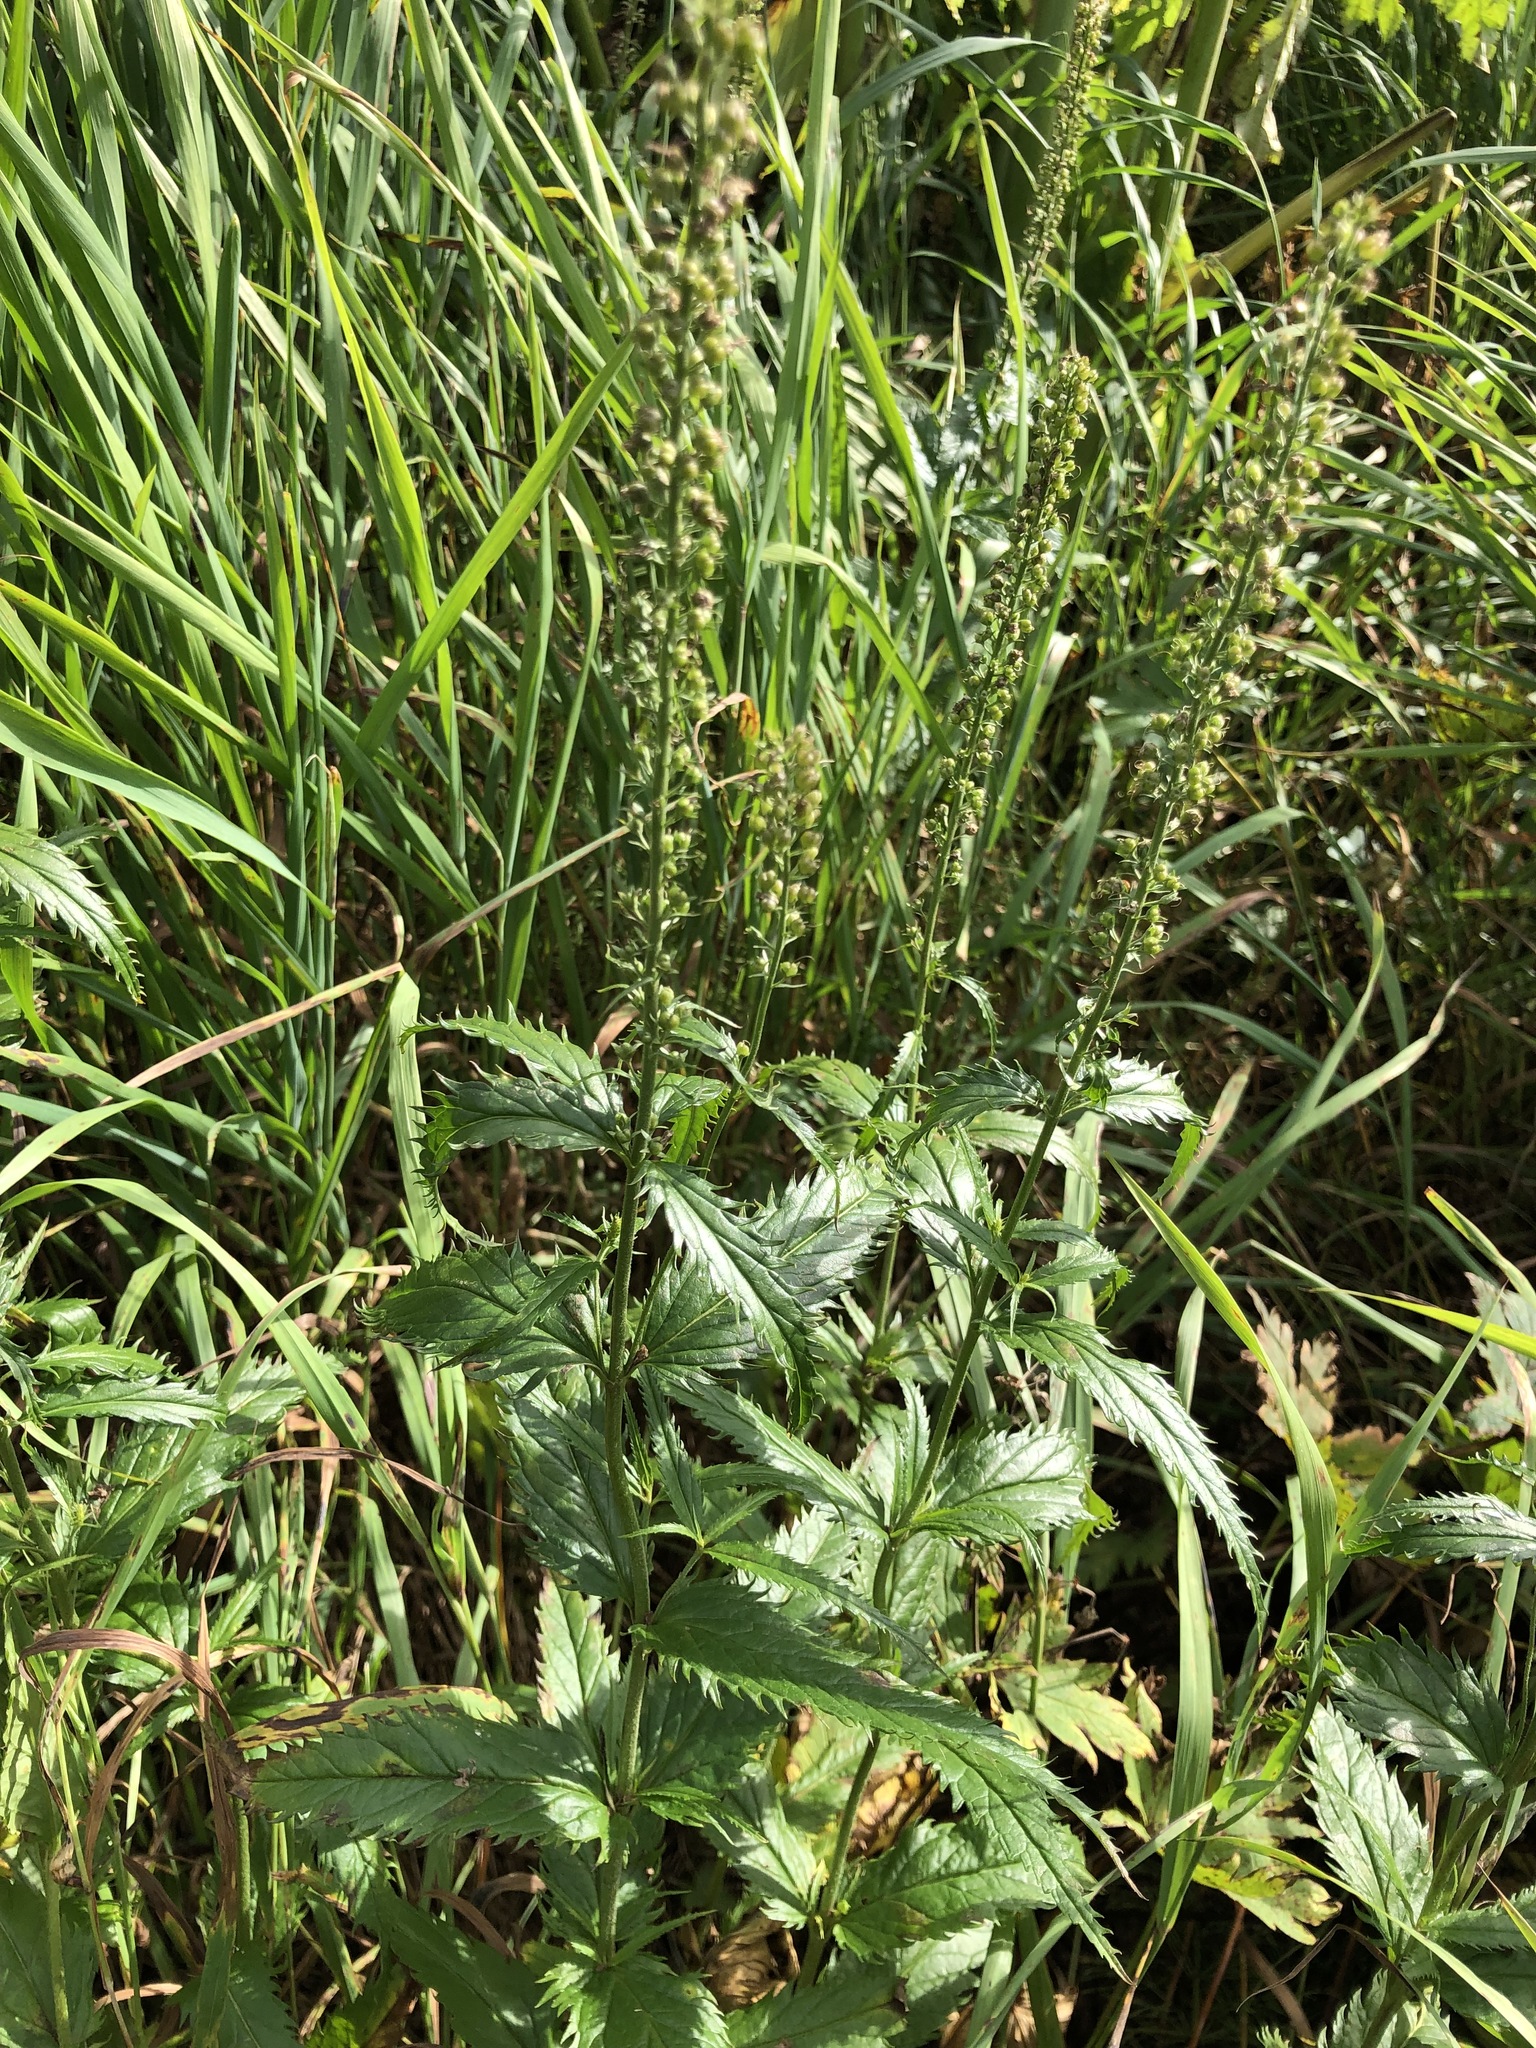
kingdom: Plantae
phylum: Tracheophyta
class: Magnoliopsida
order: Lamiales
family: Plantaginaceae
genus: Veronica
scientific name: Veronica longifolia
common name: Garden speedwell
